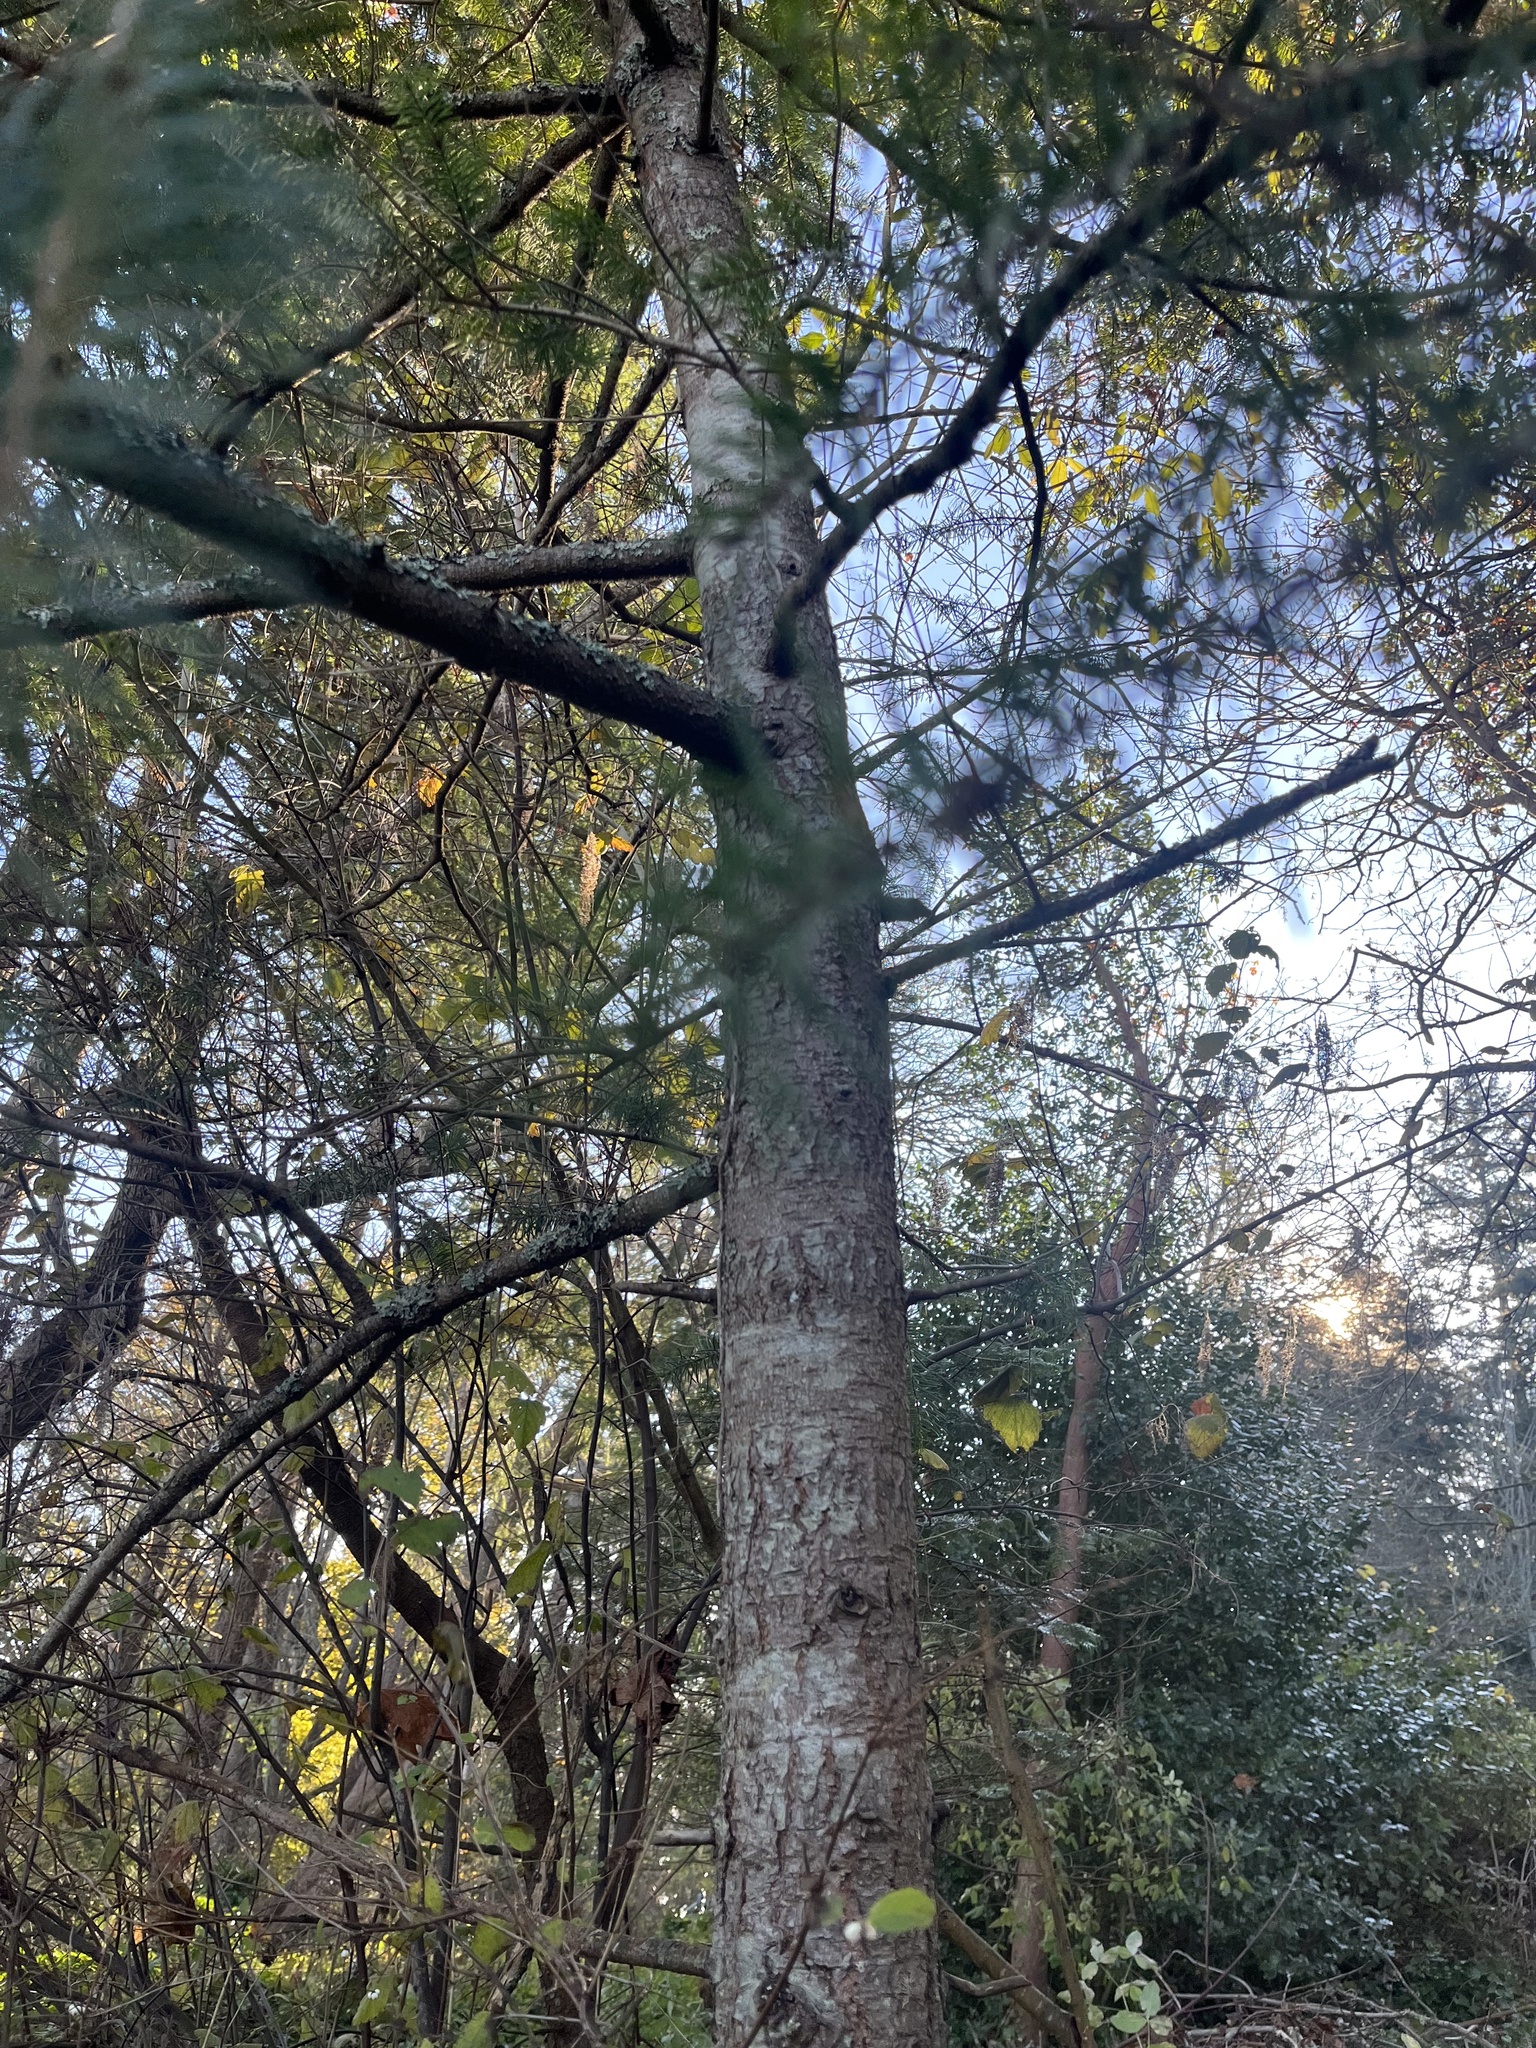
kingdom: Plantae
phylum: Tracheophyta
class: Pinopsida
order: Pinales
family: Pinaceae
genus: Pseudotsuga
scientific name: Pseudotsuga menziesii
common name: Douglas fir
